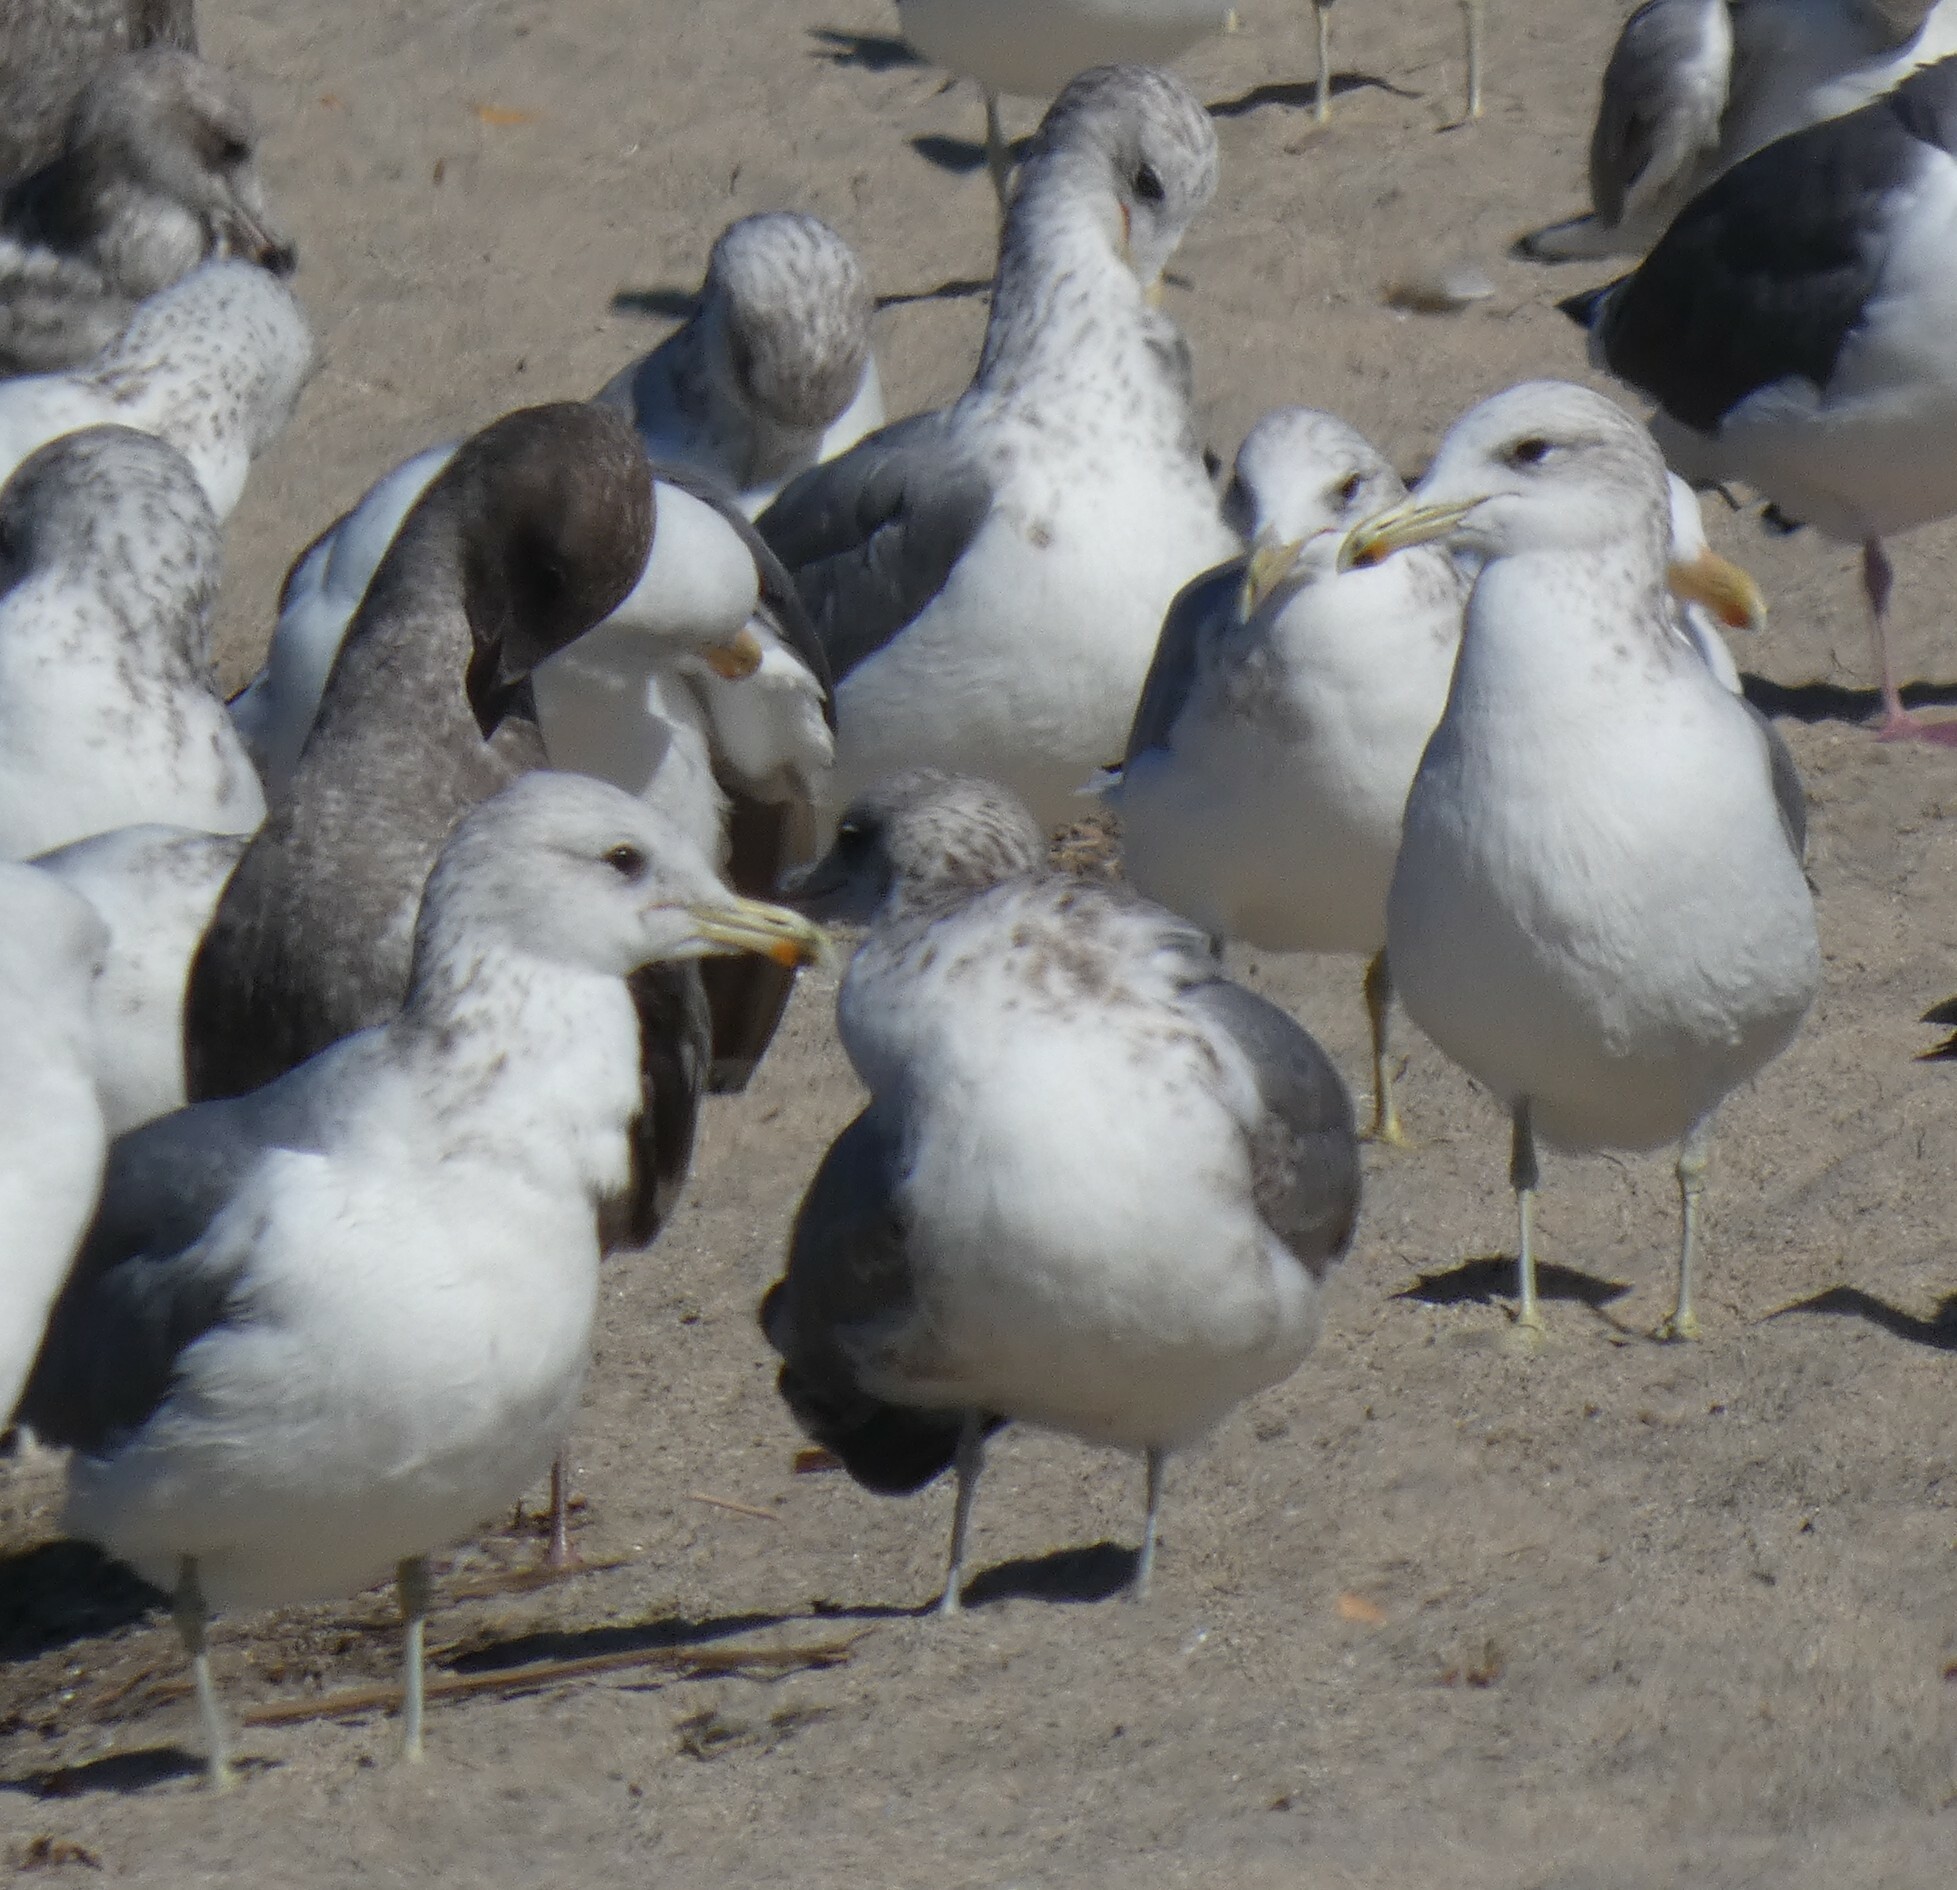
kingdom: Animalia
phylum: Chordata
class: Aves
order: Charadriiformes
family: Laridae
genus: Larus
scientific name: Larus californicus
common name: California gull
